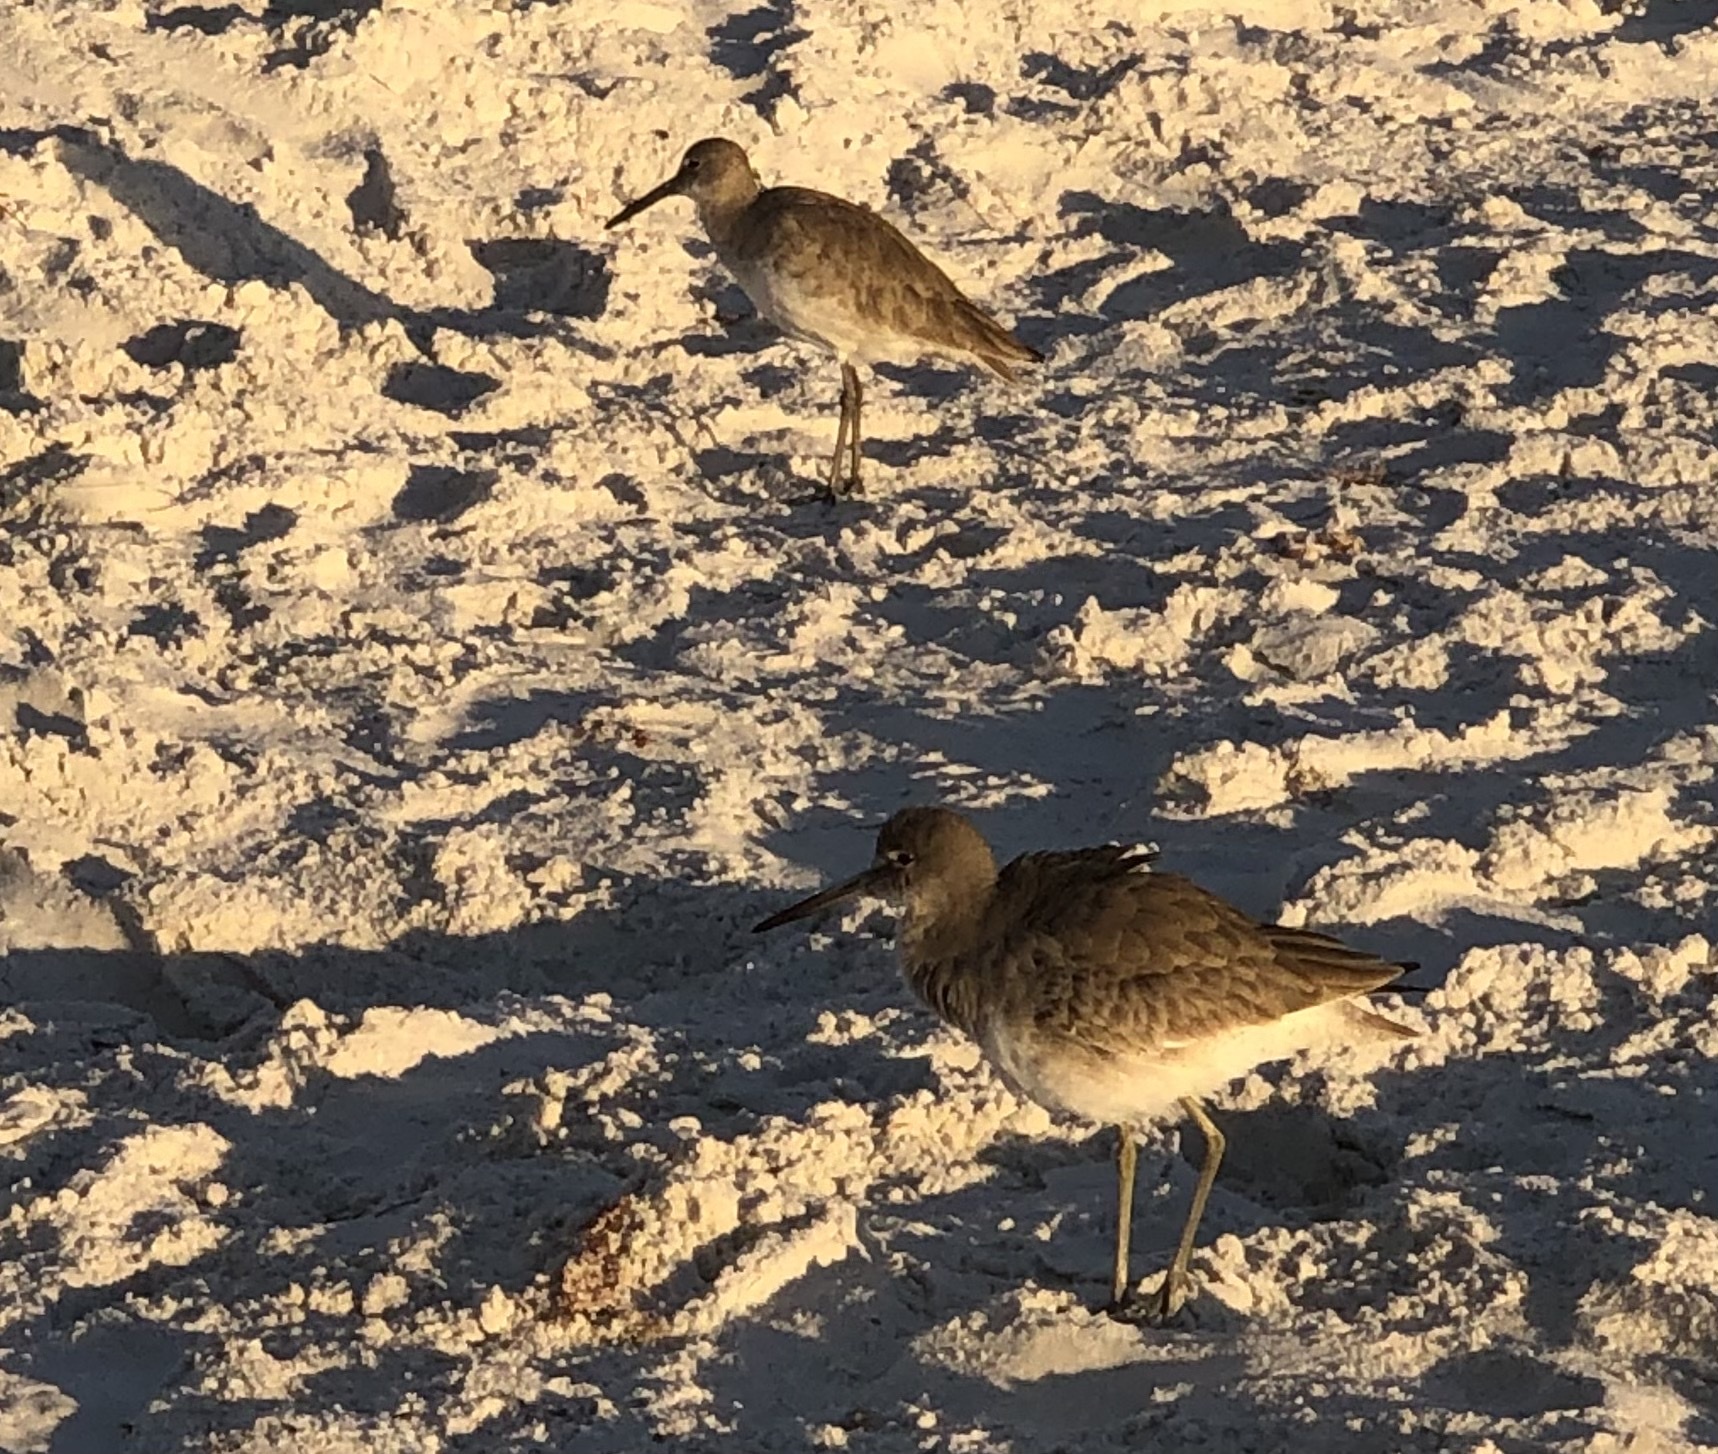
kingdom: Animalia
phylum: Chordata
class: Aves
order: Charadriiformes
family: Scolopacidae
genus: Tringa
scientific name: Tringa semipalmata
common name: Willet
